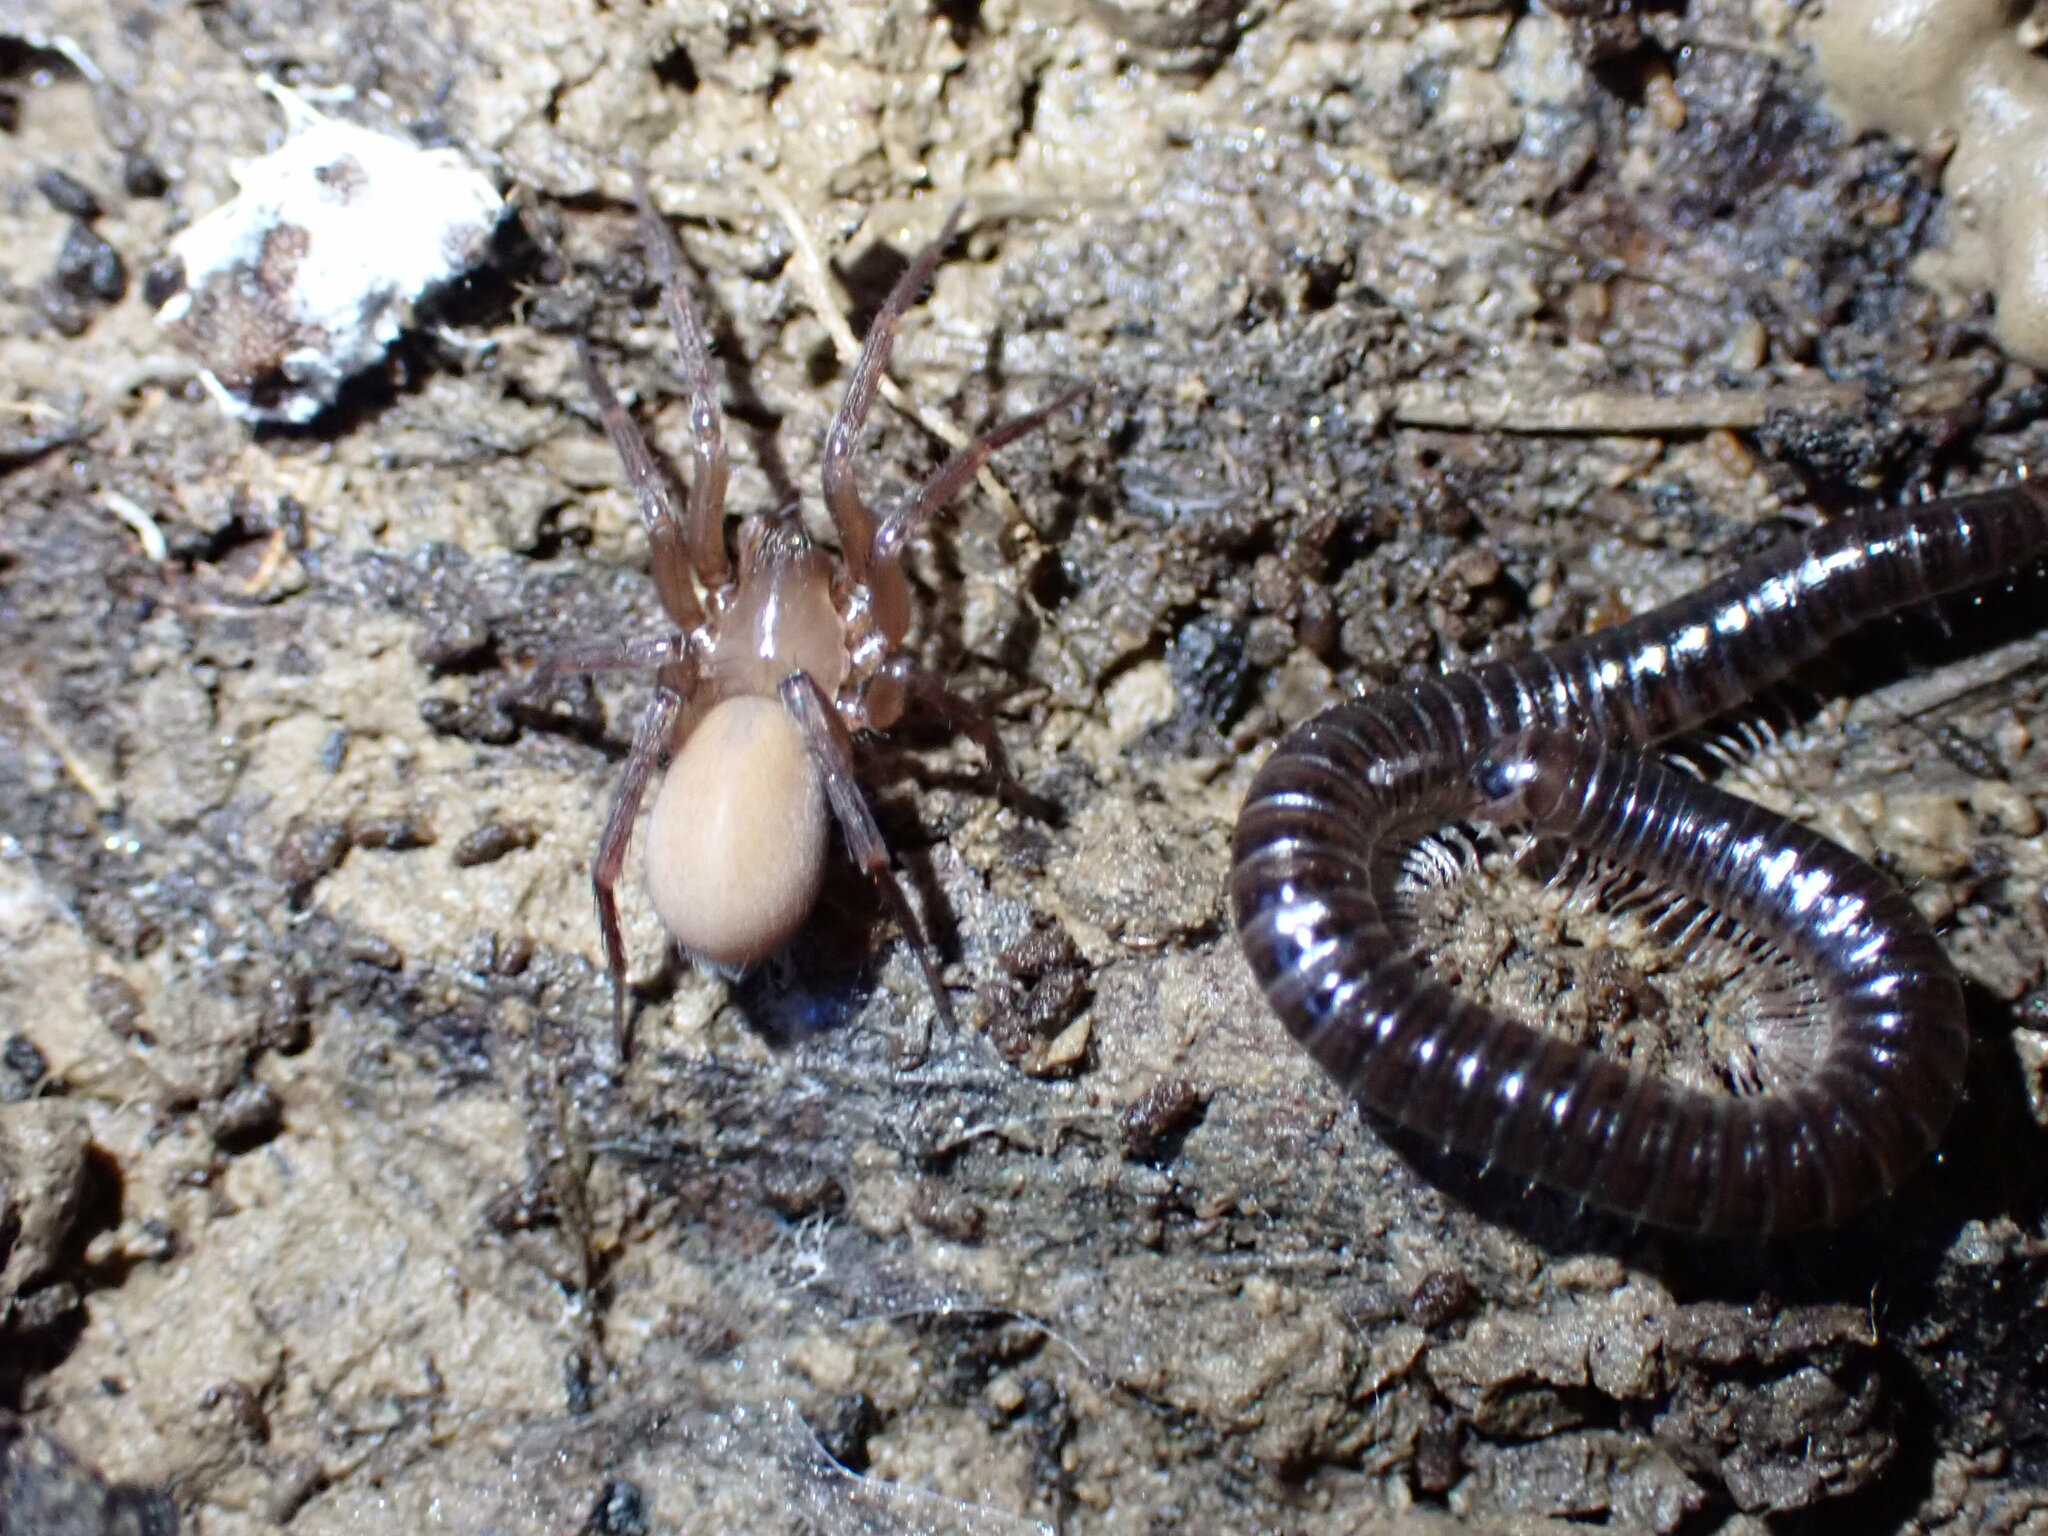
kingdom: Animalia
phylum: Arthropoda
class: Arachnida
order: Araneae
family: Hahniidae
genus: Cicurina
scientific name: Cicurina
